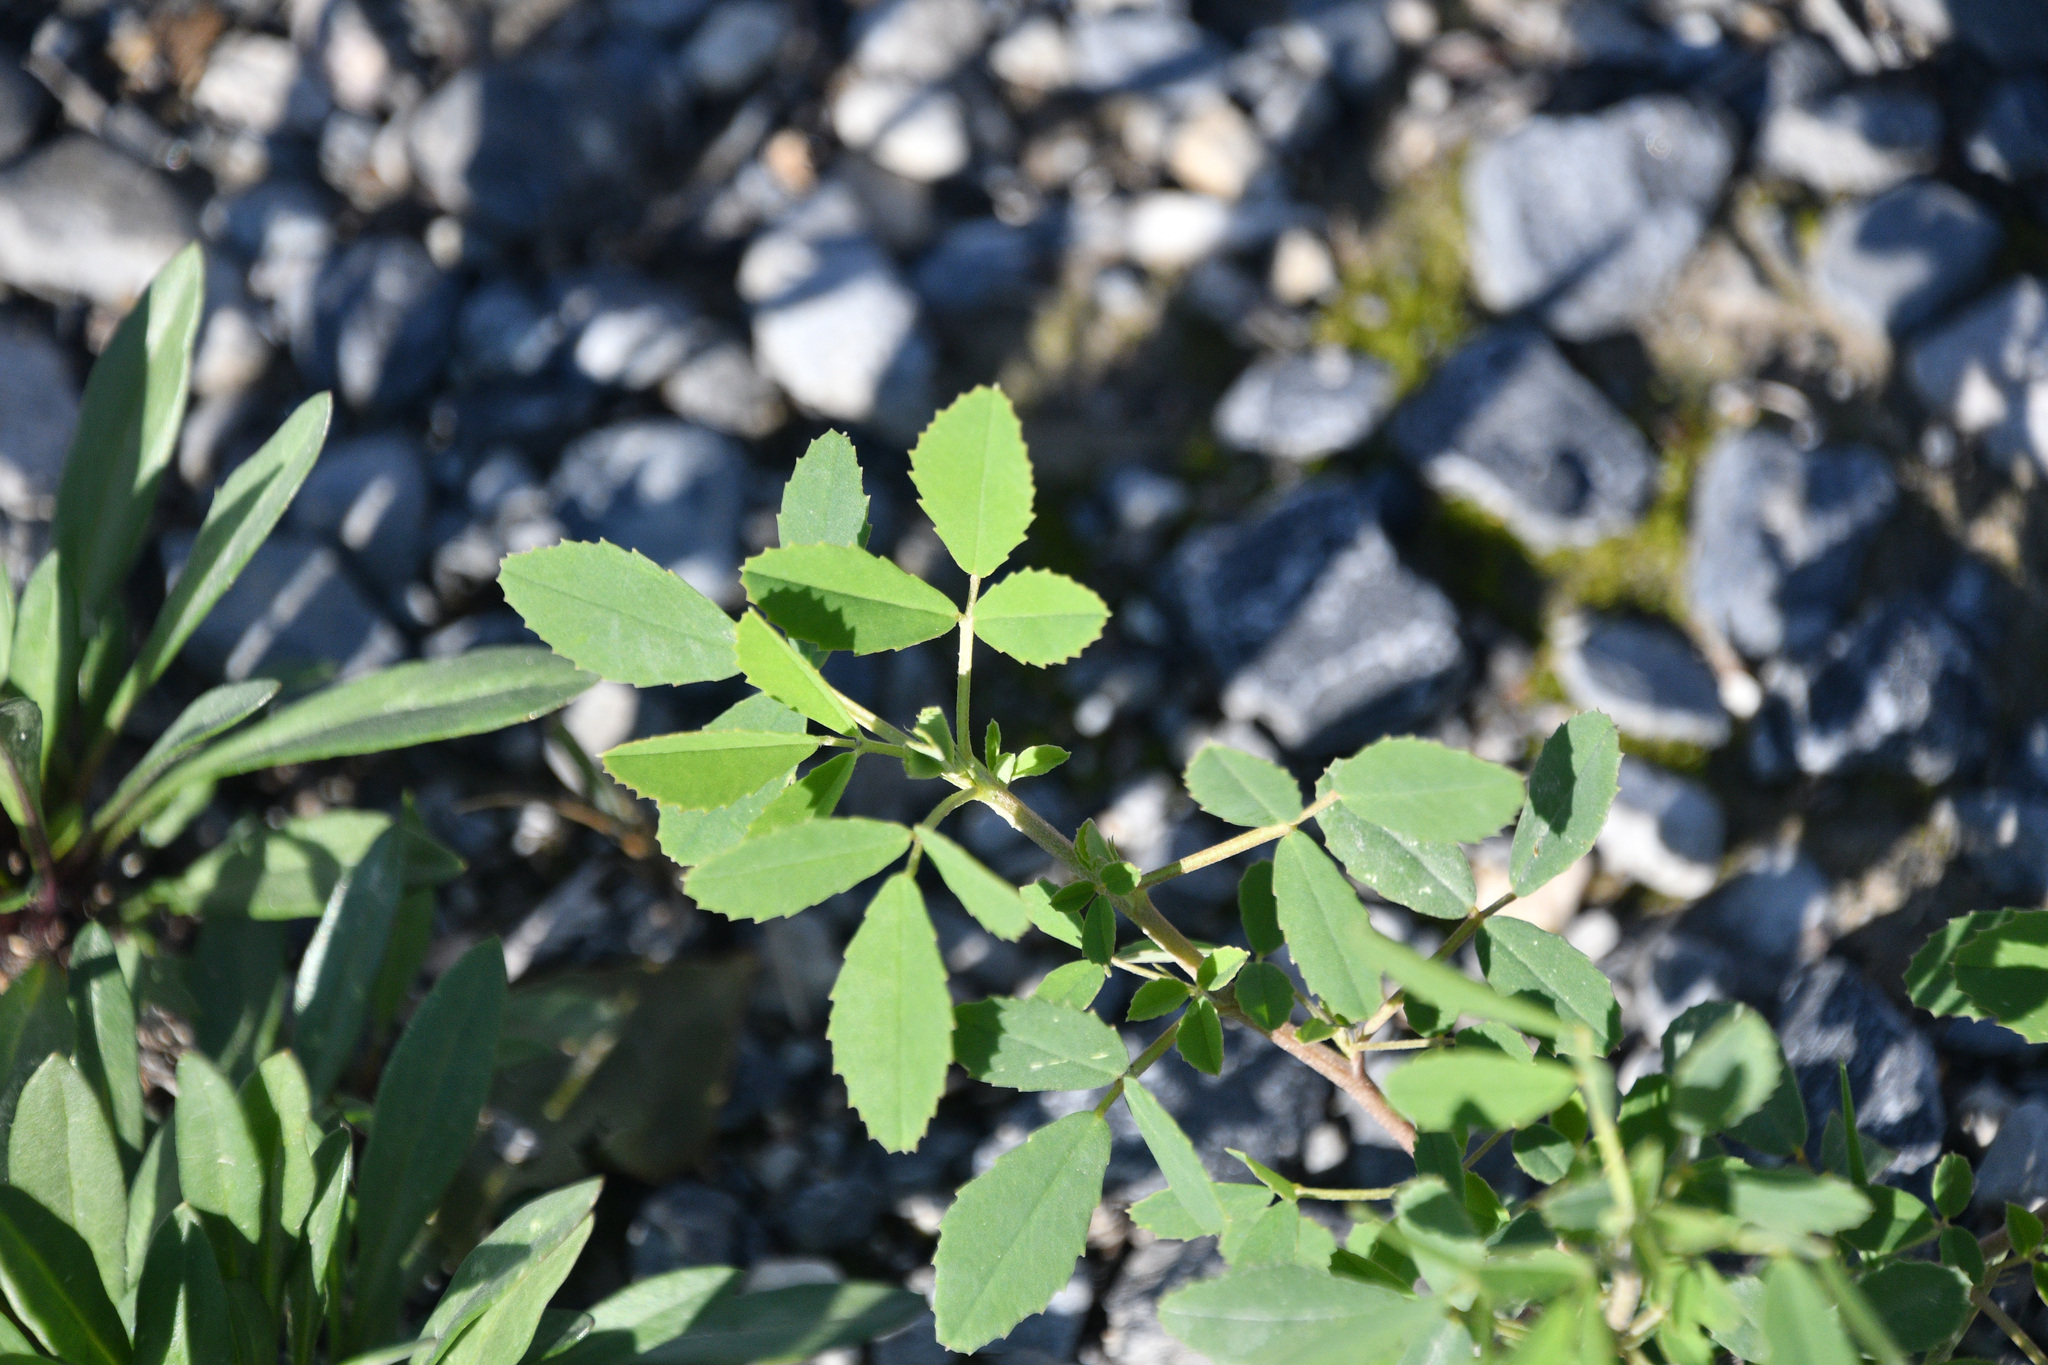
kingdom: Plantae
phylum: Tracheophyta
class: Magnoliopsida
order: Fabales
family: Fabaceae
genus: Melilotus
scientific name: Melilotus
